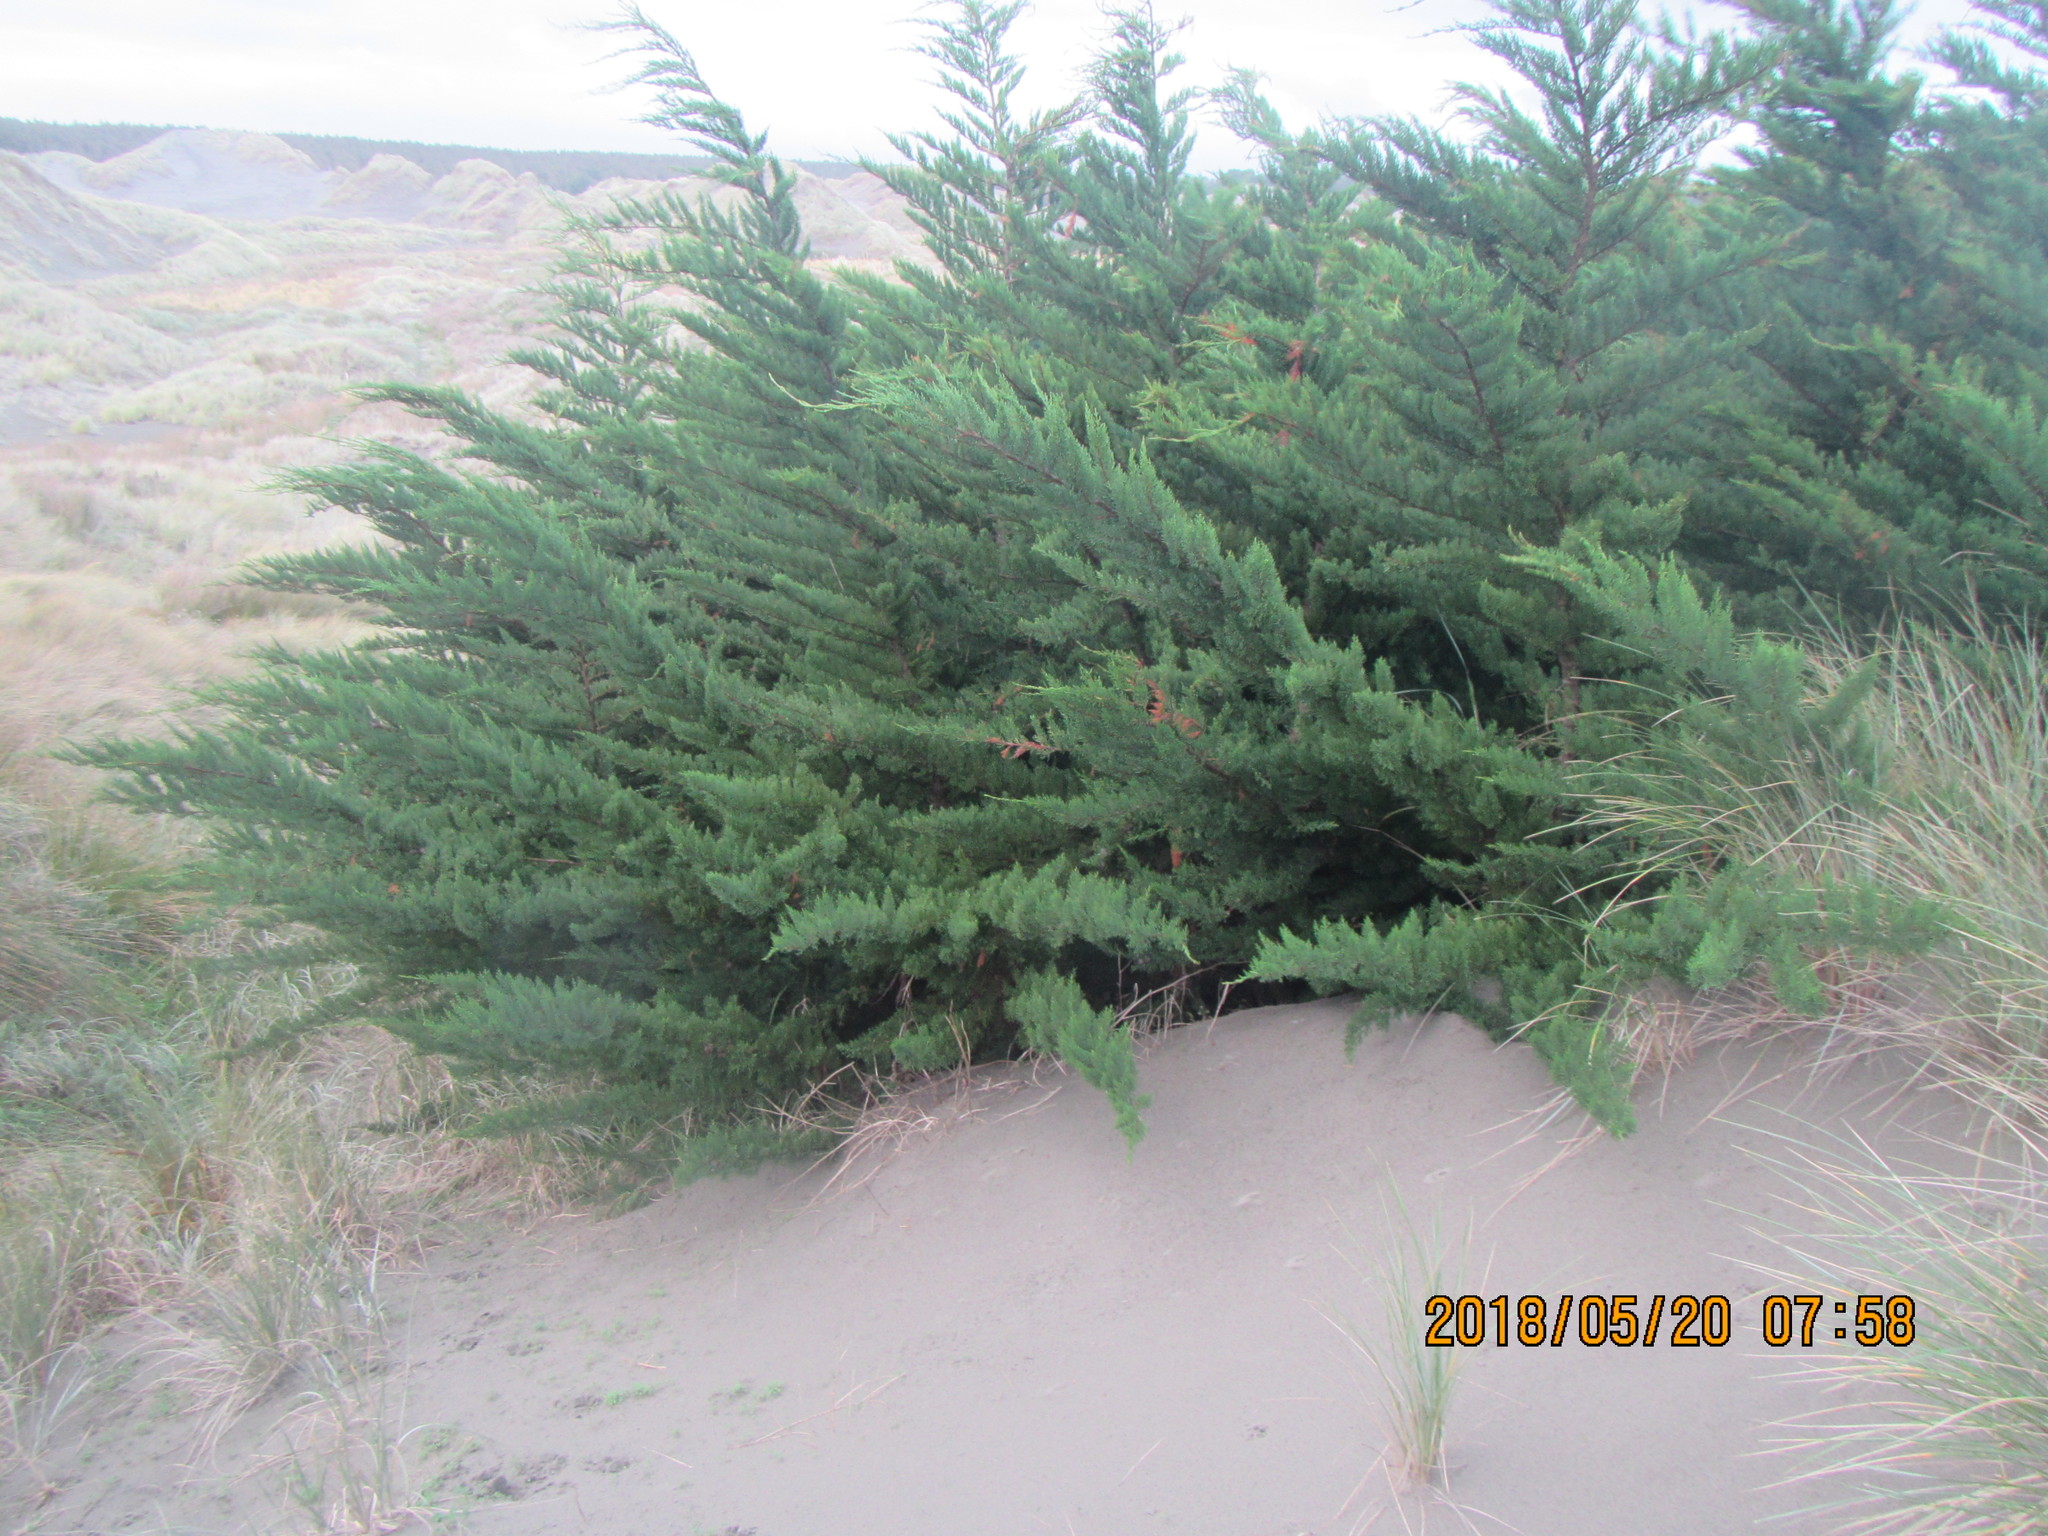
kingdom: Plantae
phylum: Tracheophyta
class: Pinopsida
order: Pinales
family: Cupressaceae
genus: Cupressus
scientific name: Cupressus macrocarpa
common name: Monterey cypress
